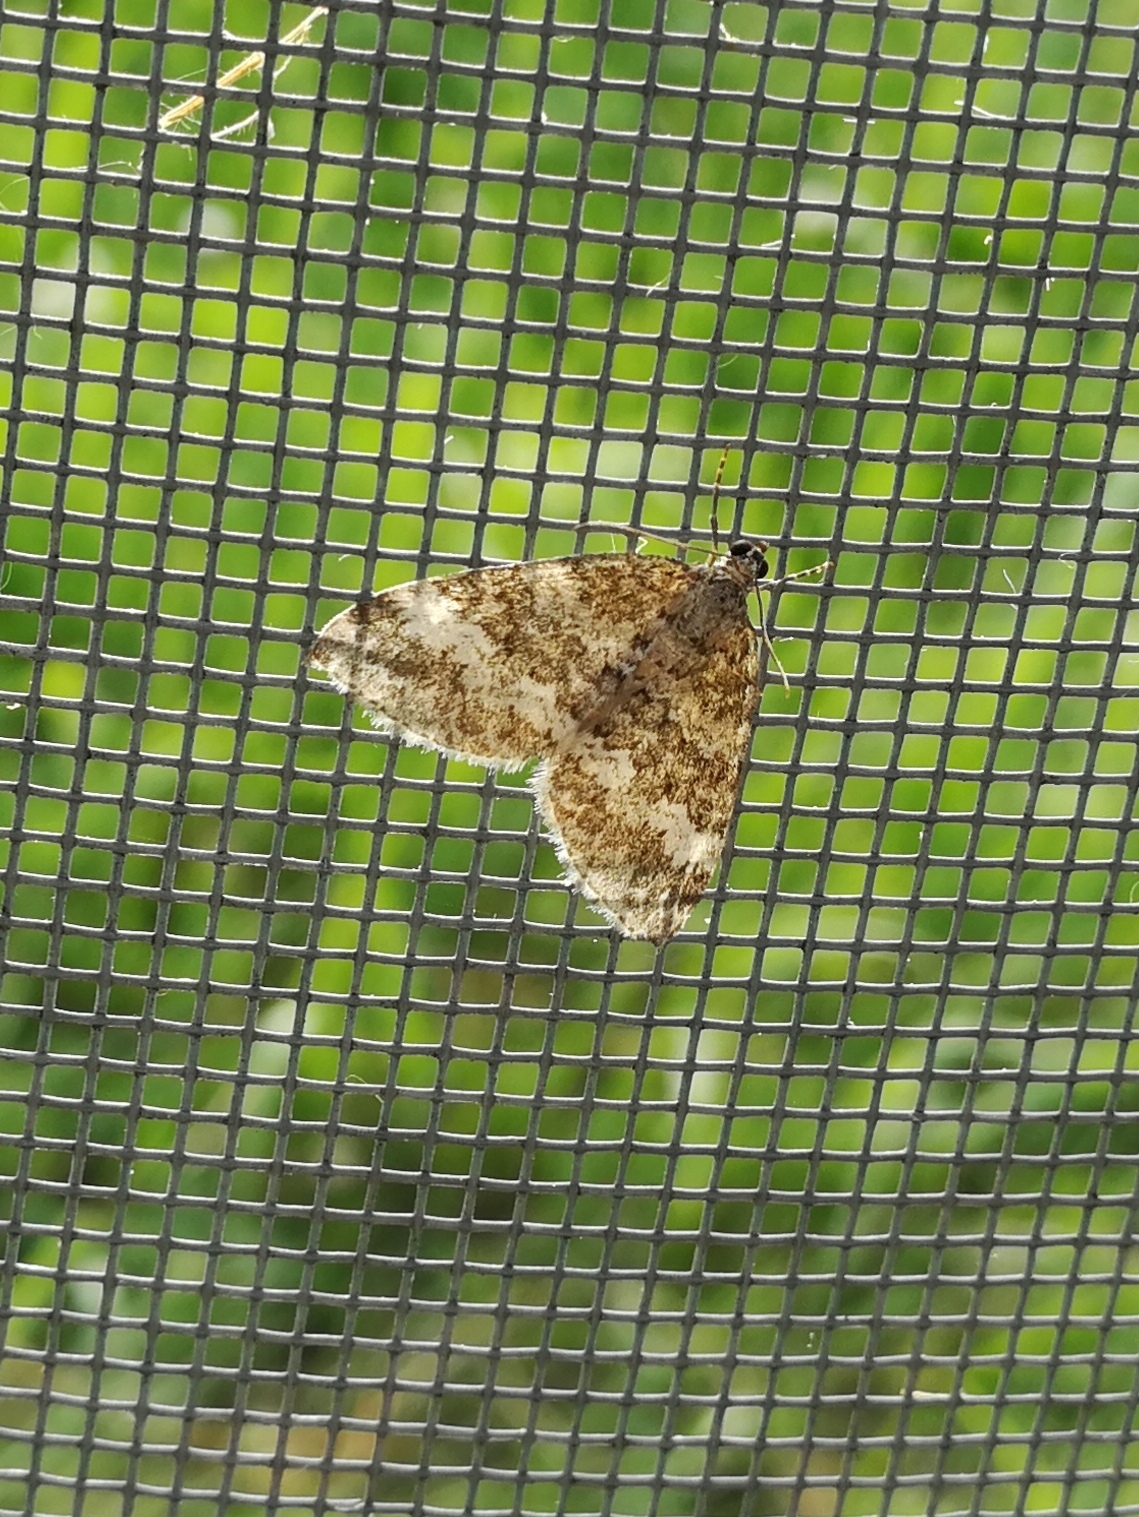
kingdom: Animalia
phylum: Arthropoda
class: Insecta
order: Lepidoptera
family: Geometridae
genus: Perizoma
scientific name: Perizoma hydrata
